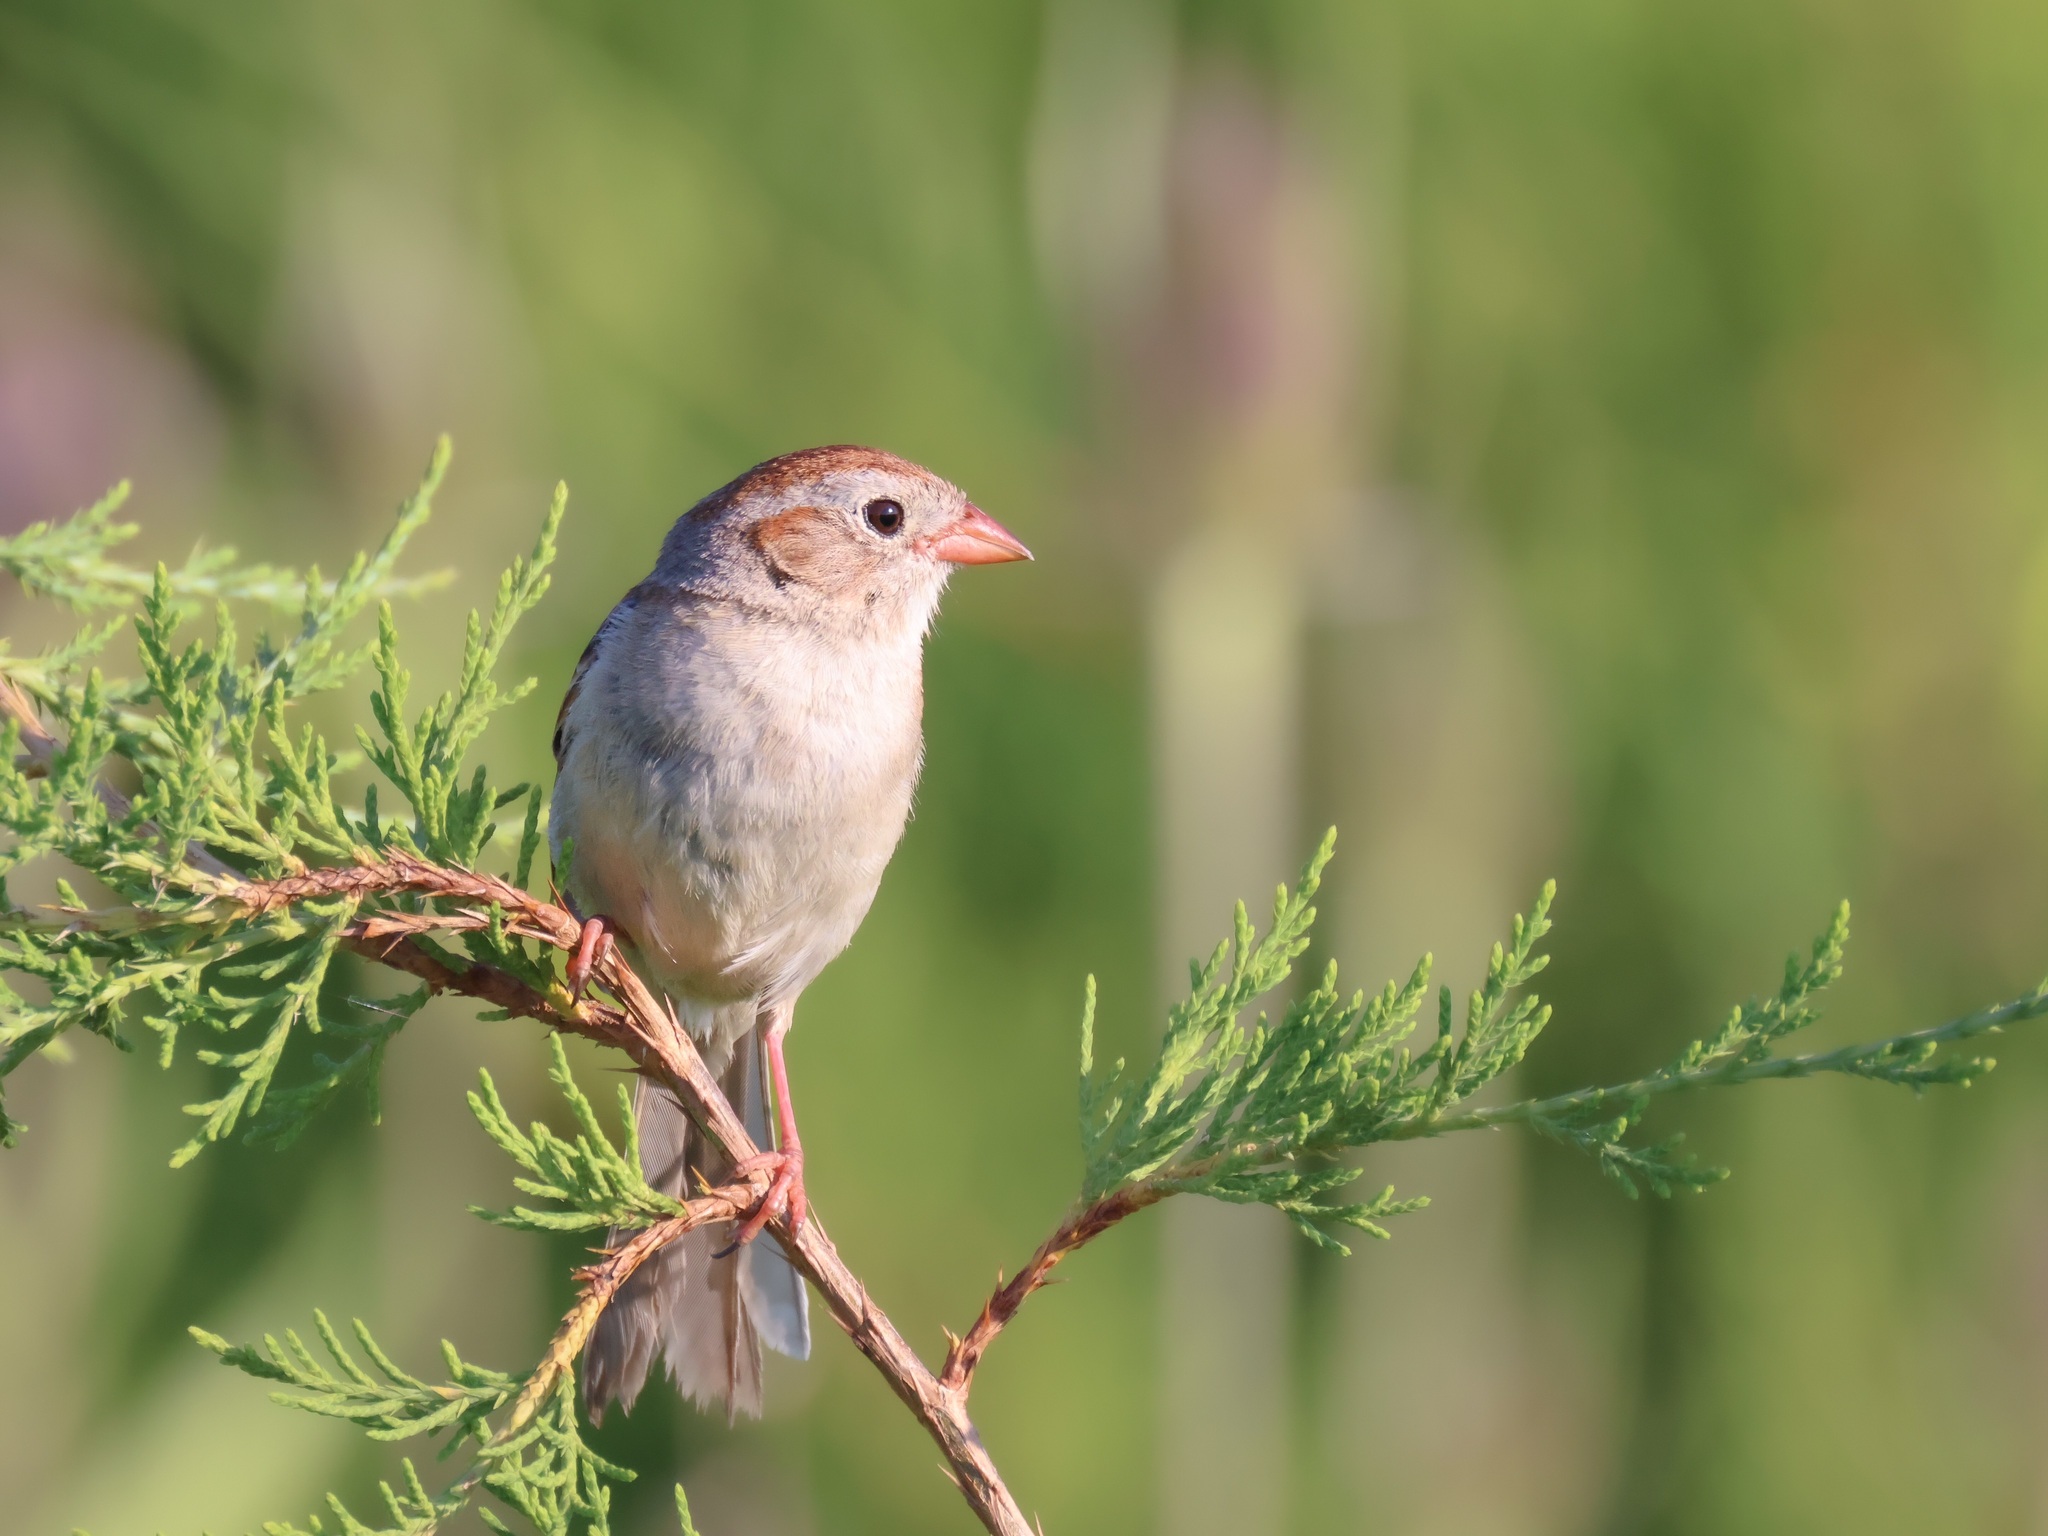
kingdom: Animalia
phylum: Chordata
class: Aves
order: Passeriformes
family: Passerellidae
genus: Spizella
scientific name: Spizella pusilla
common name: Field sparrow
